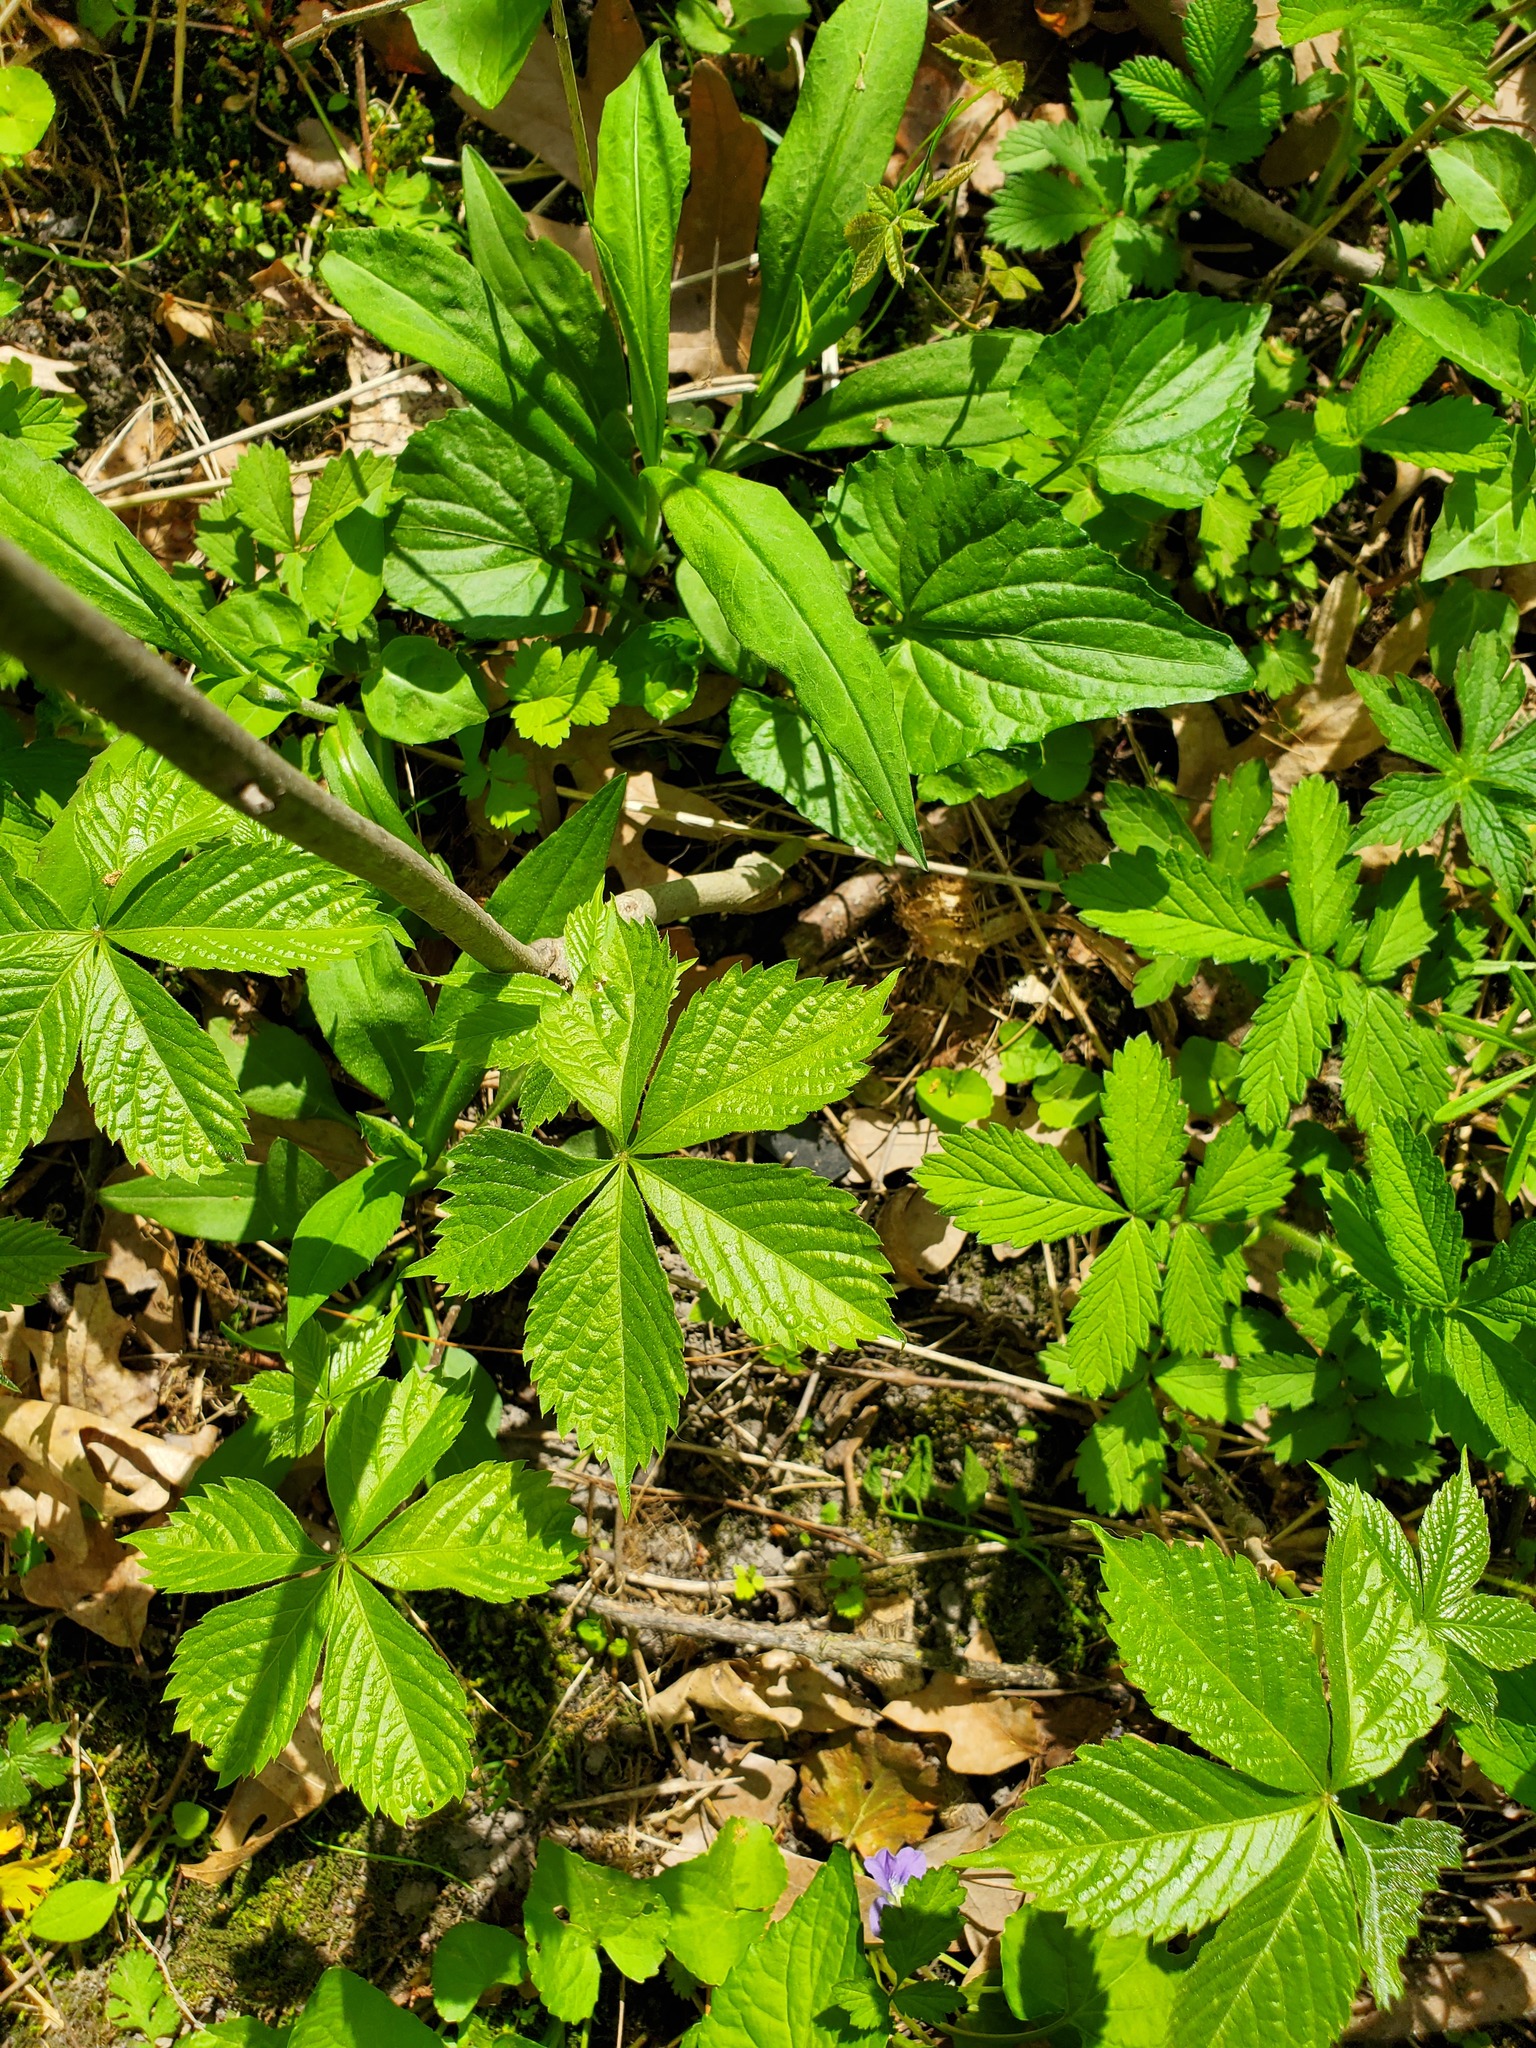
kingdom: Plantae
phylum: Tracheophyta
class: Magnoliopsida
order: Vitales
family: Vitaceae
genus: Parthenocissus
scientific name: Parthenocissus quinquefolia
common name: Virginia-creeper
